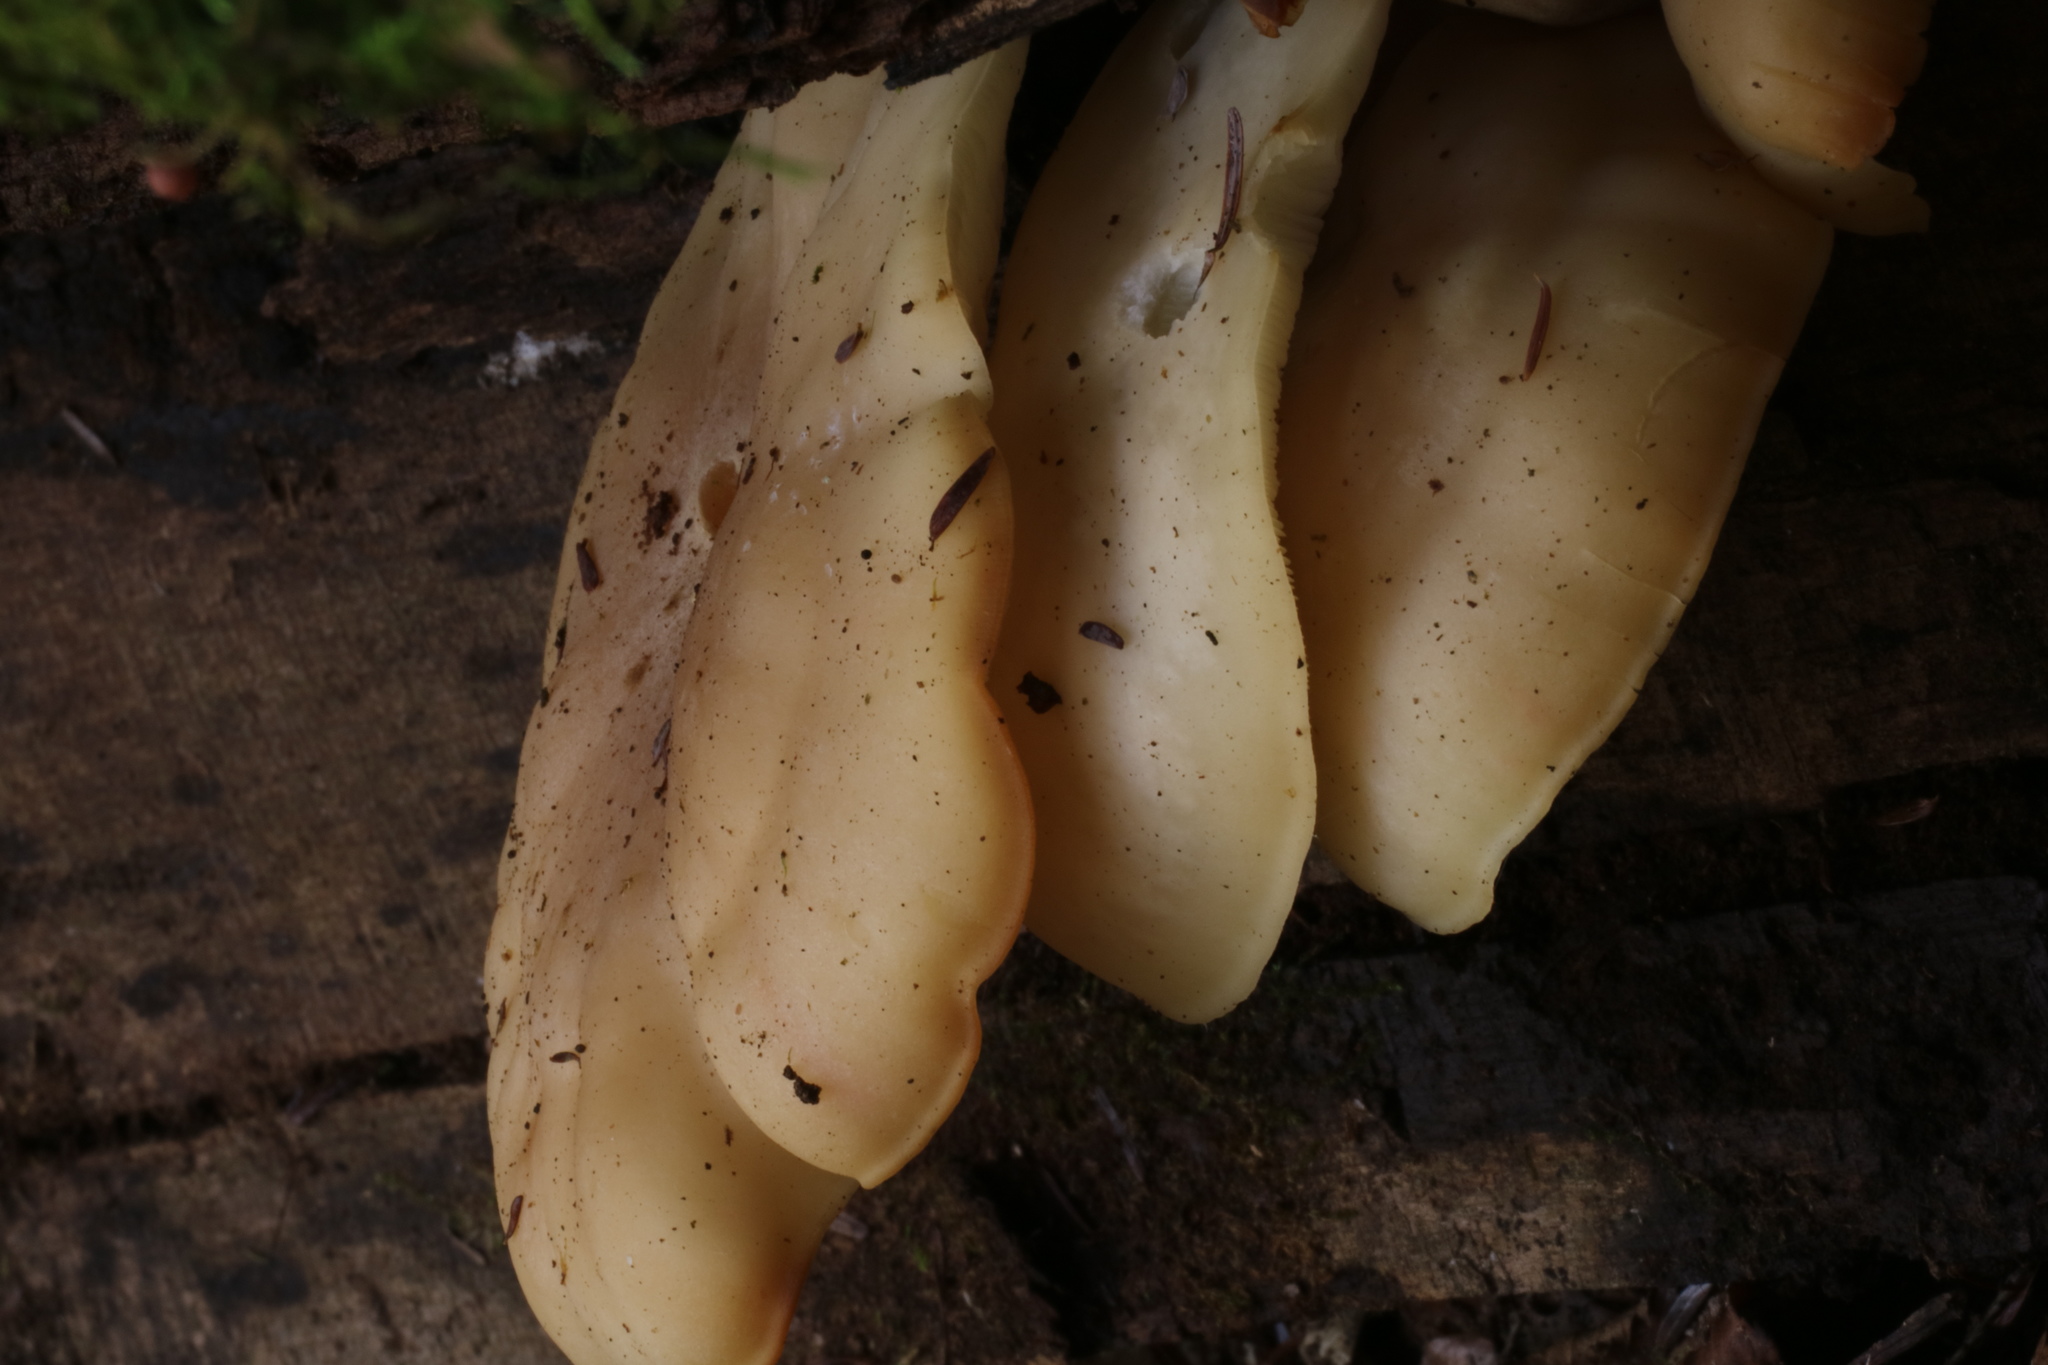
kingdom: Fungi
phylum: Basidiomycota
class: Agaricomycetes
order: Agaricales
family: Lyophyllaceae
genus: Hypsizygus
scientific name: Hypsizygus tessulatus
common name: Beech mushroom
